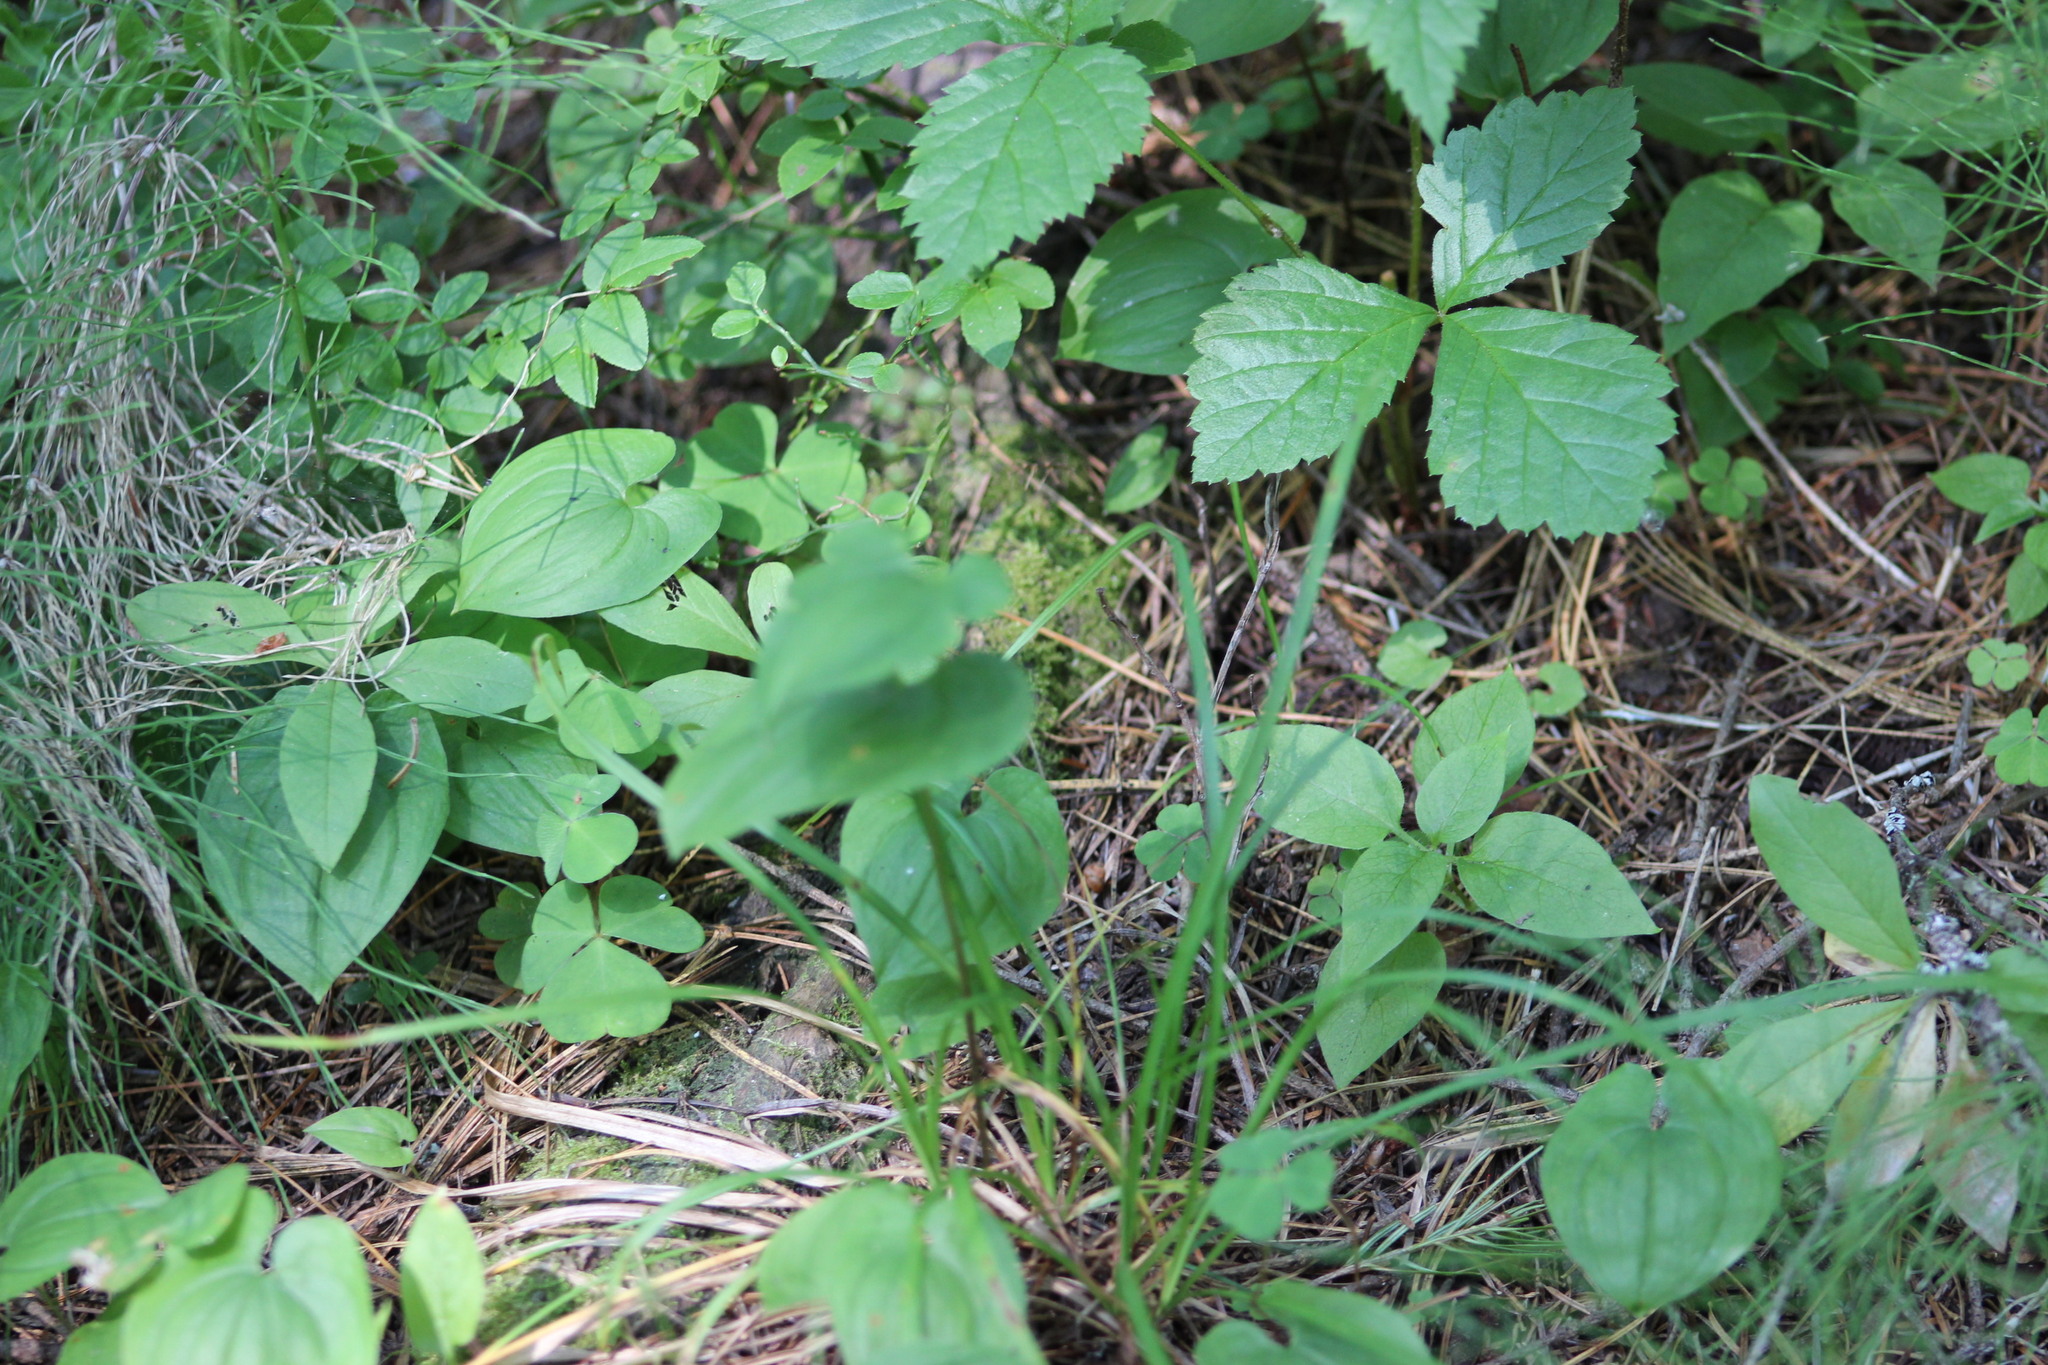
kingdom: Plantae
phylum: Tracheophyta
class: Liliopsida
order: Asparagales
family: Asparagaceae
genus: Maianthemum
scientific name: Maianthemum bifolium
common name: May lily
